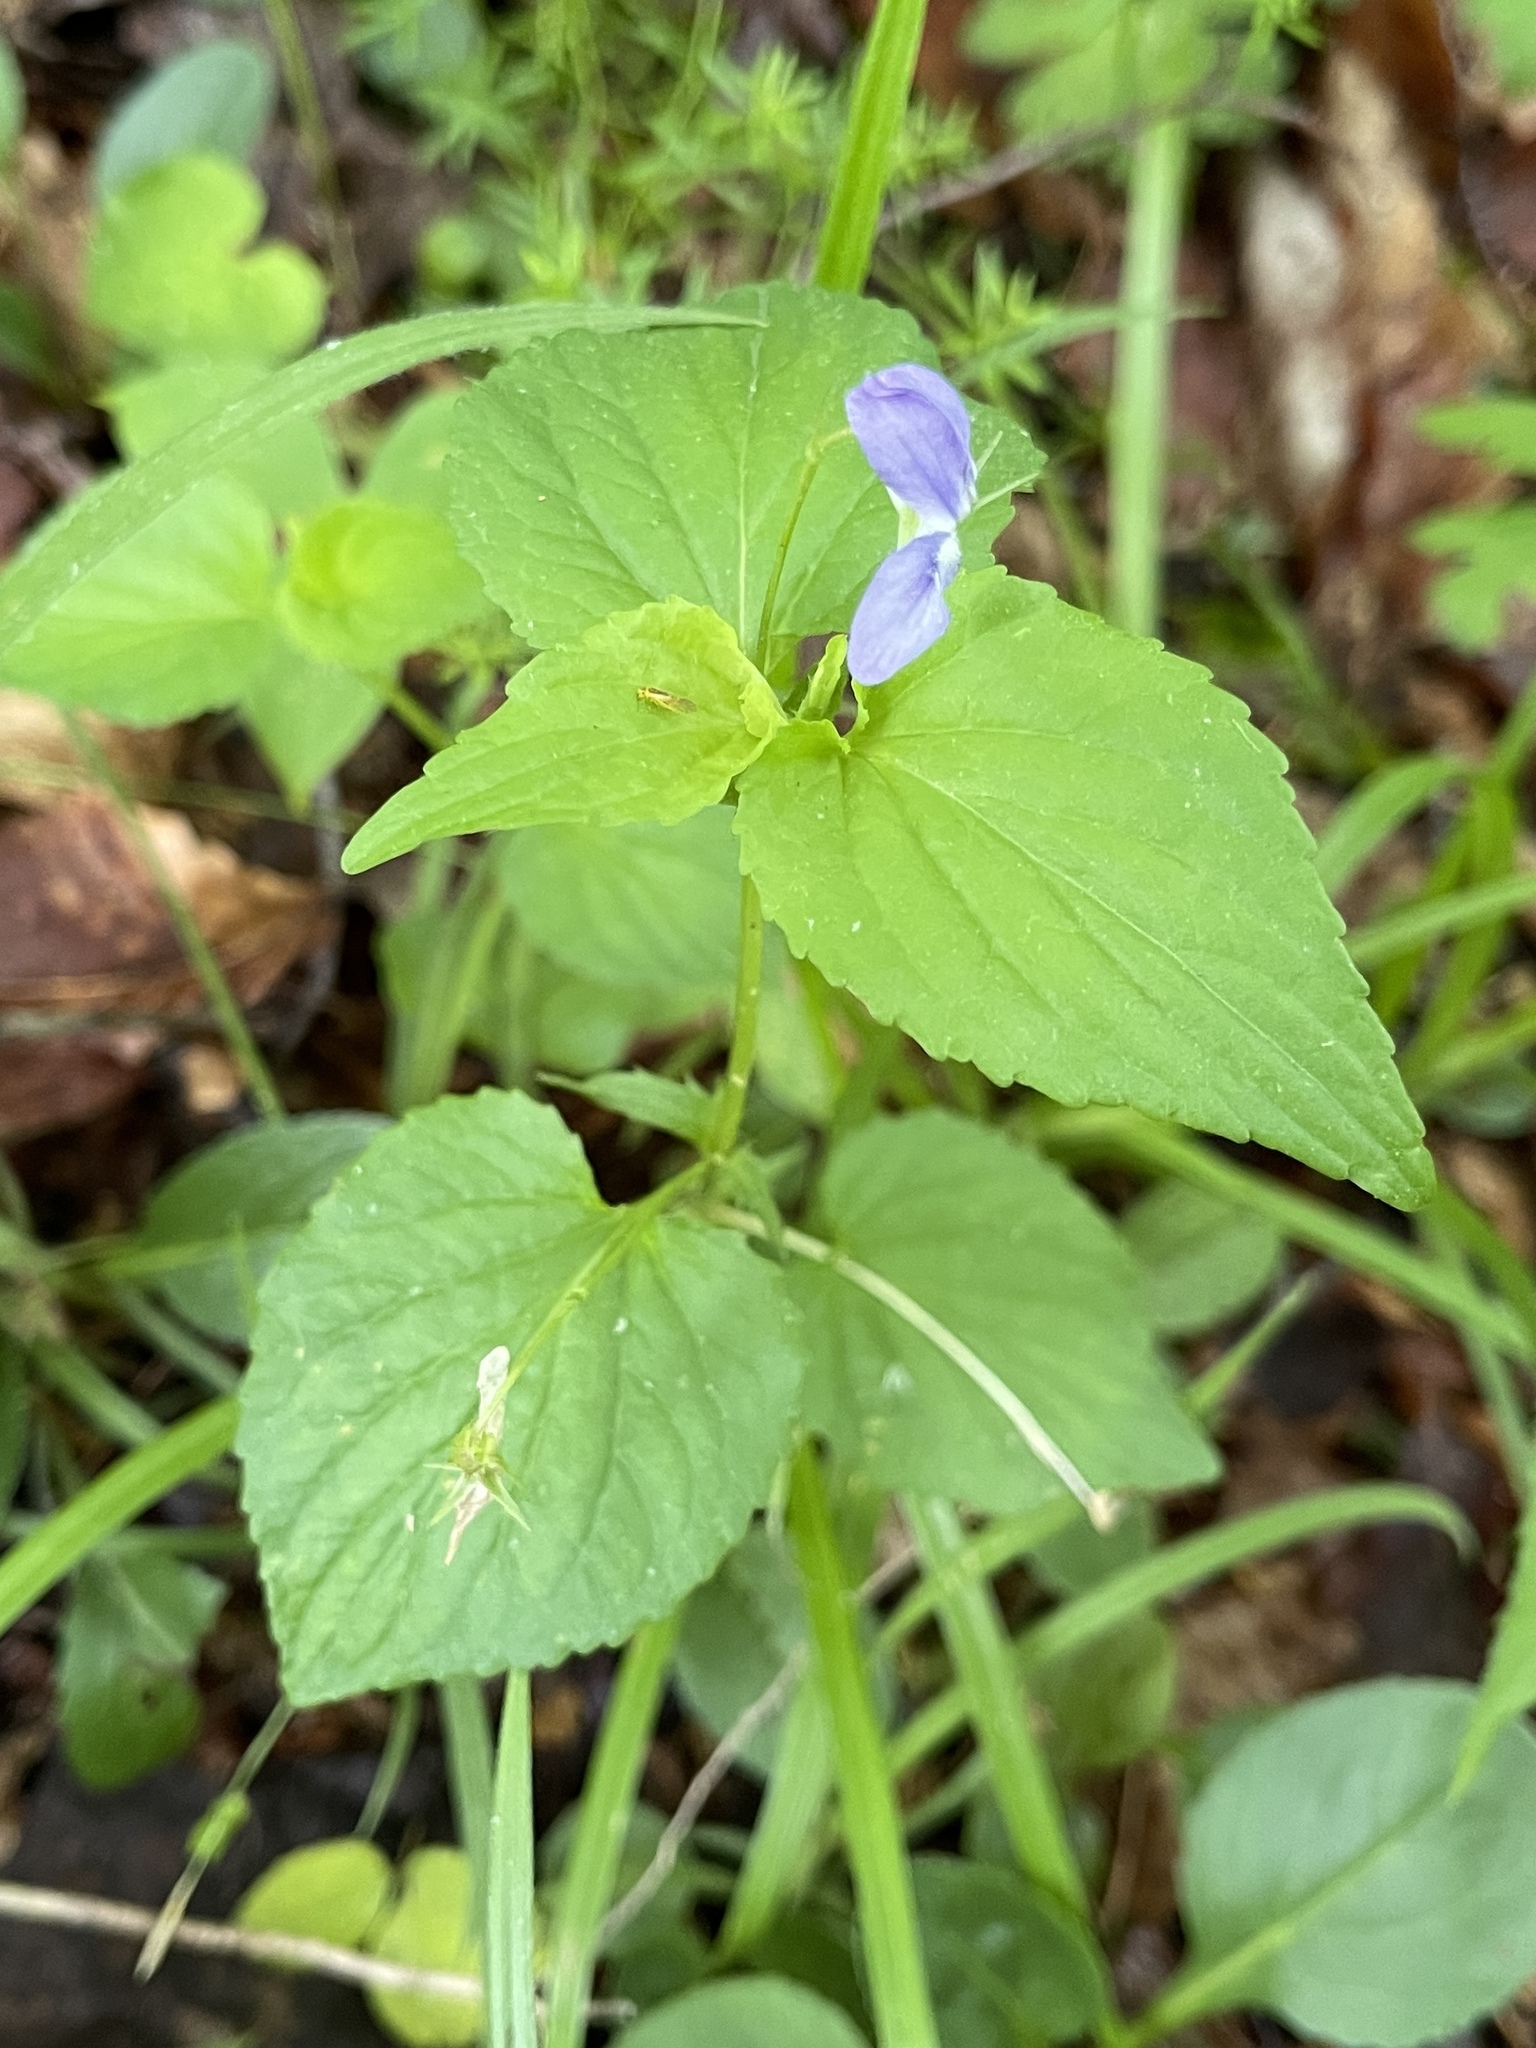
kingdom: Plantae
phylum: Tracheophyta
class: Magnoliopsida
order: Malpighiales
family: Violaceae
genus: Viola
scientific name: Viola labradorica
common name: Labrador violet
